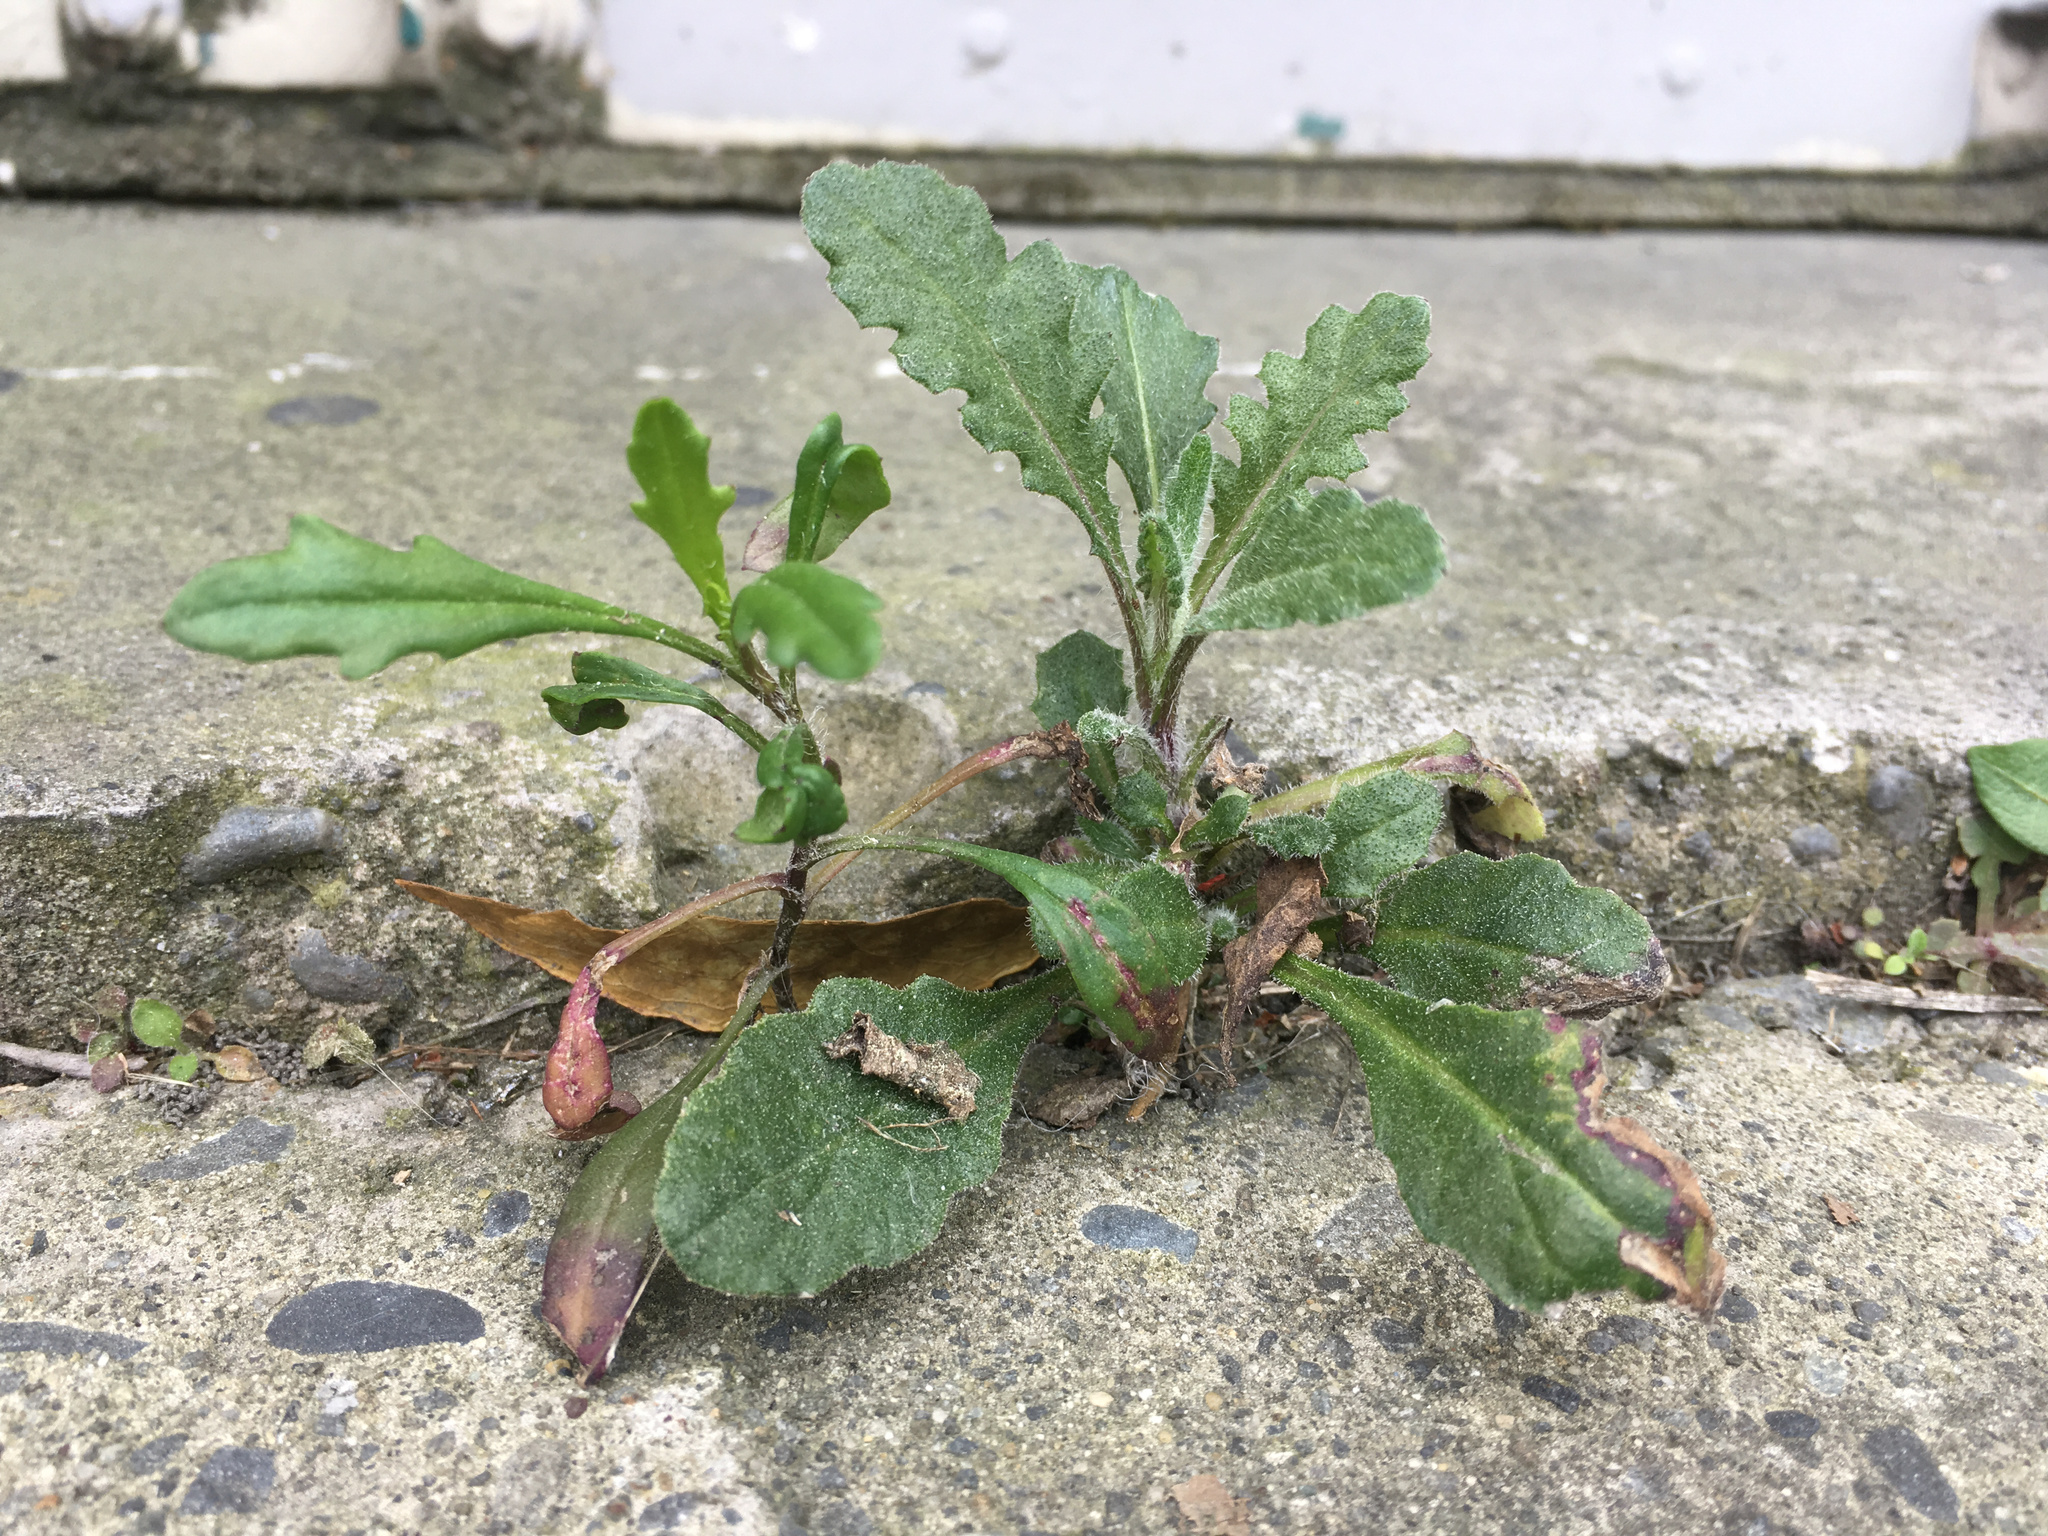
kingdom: Plantae
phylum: Tracheophyta
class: Magnoliopsida
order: Asterales
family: Asteraceae
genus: Senecio
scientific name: Senecio glomeratus
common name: Cutleaf burnweed
